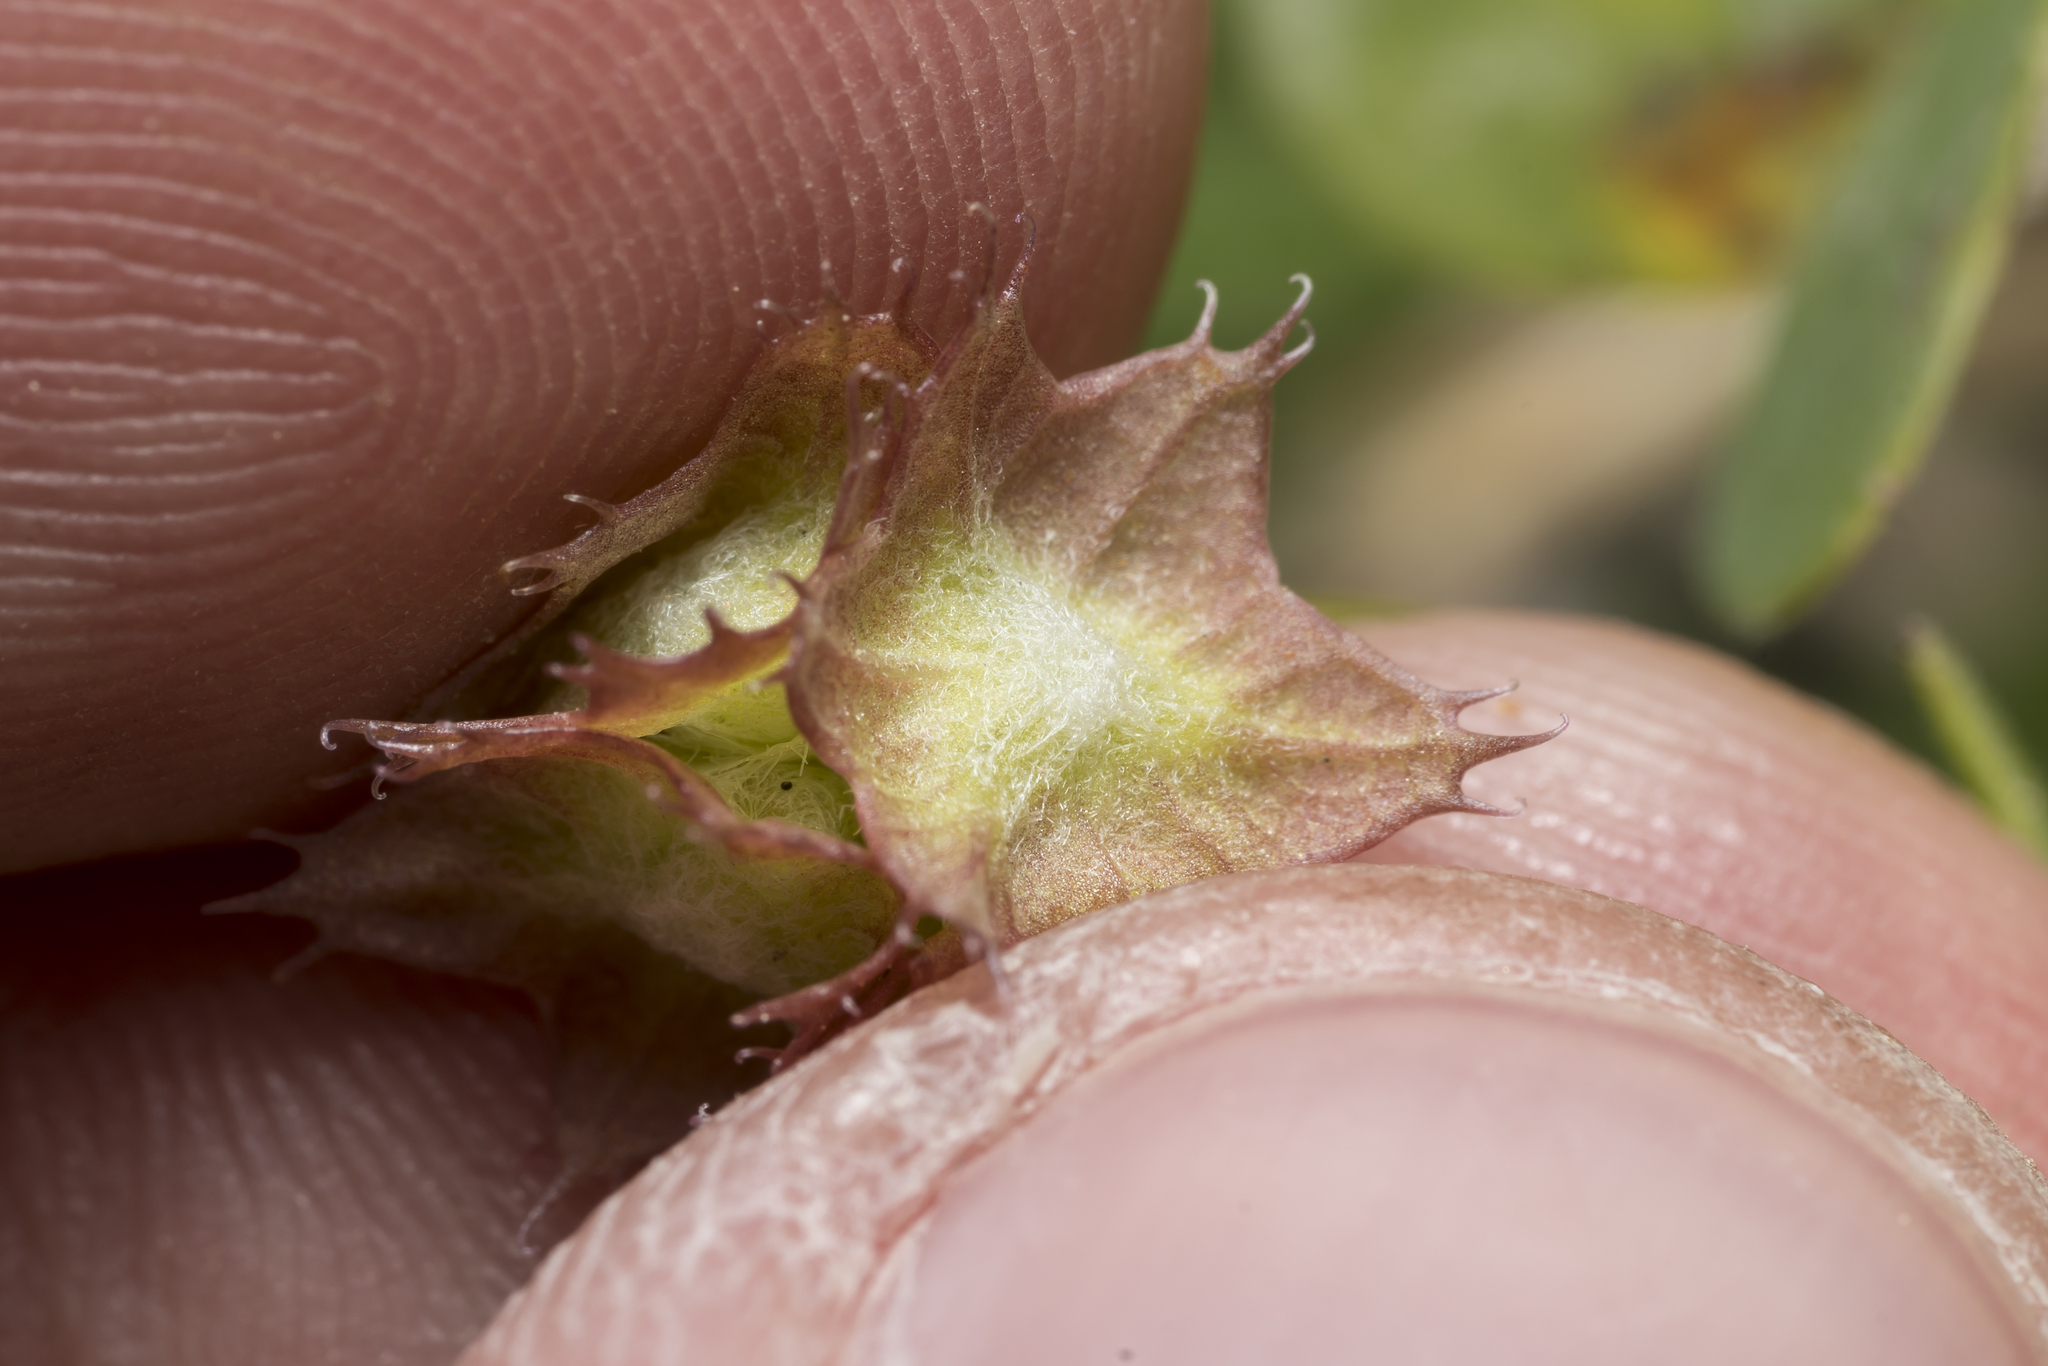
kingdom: Plantae
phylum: Tracheophyta
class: Magnoliopsida
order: Dipsacales
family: Caprifoliaceae
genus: Valerianella
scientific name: Valerianella obtusiloba
